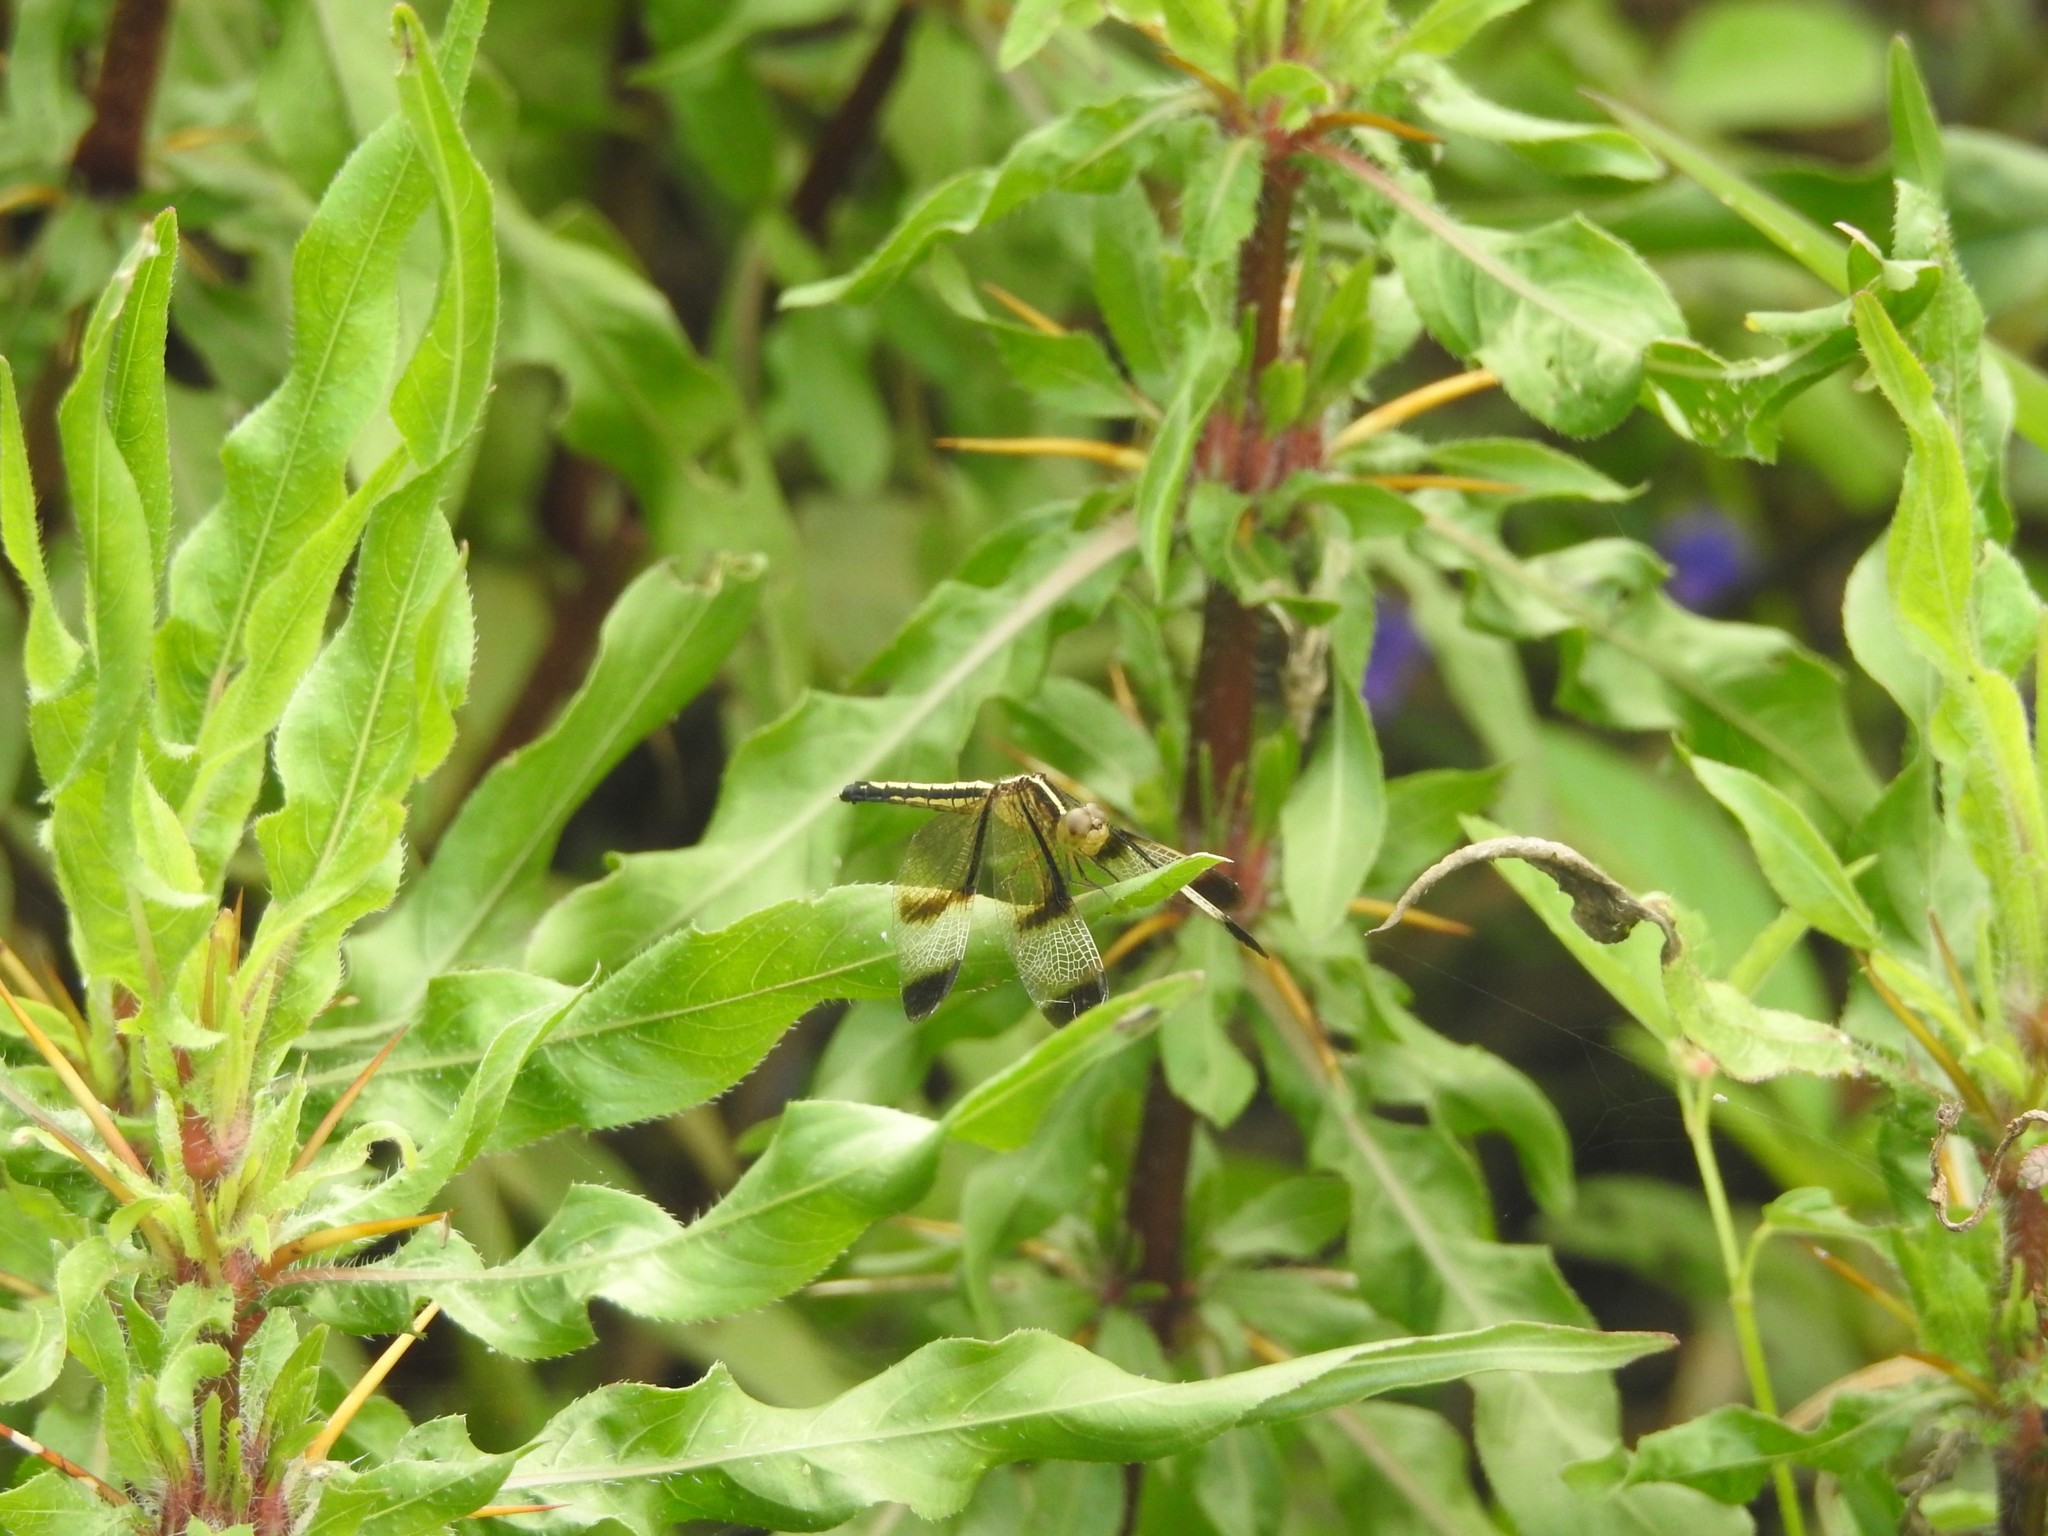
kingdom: Animalia
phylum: Arthropoda
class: Insecta
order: Odonata
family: Libellulidae
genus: Neurothemis
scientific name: Neurothemis tullia
